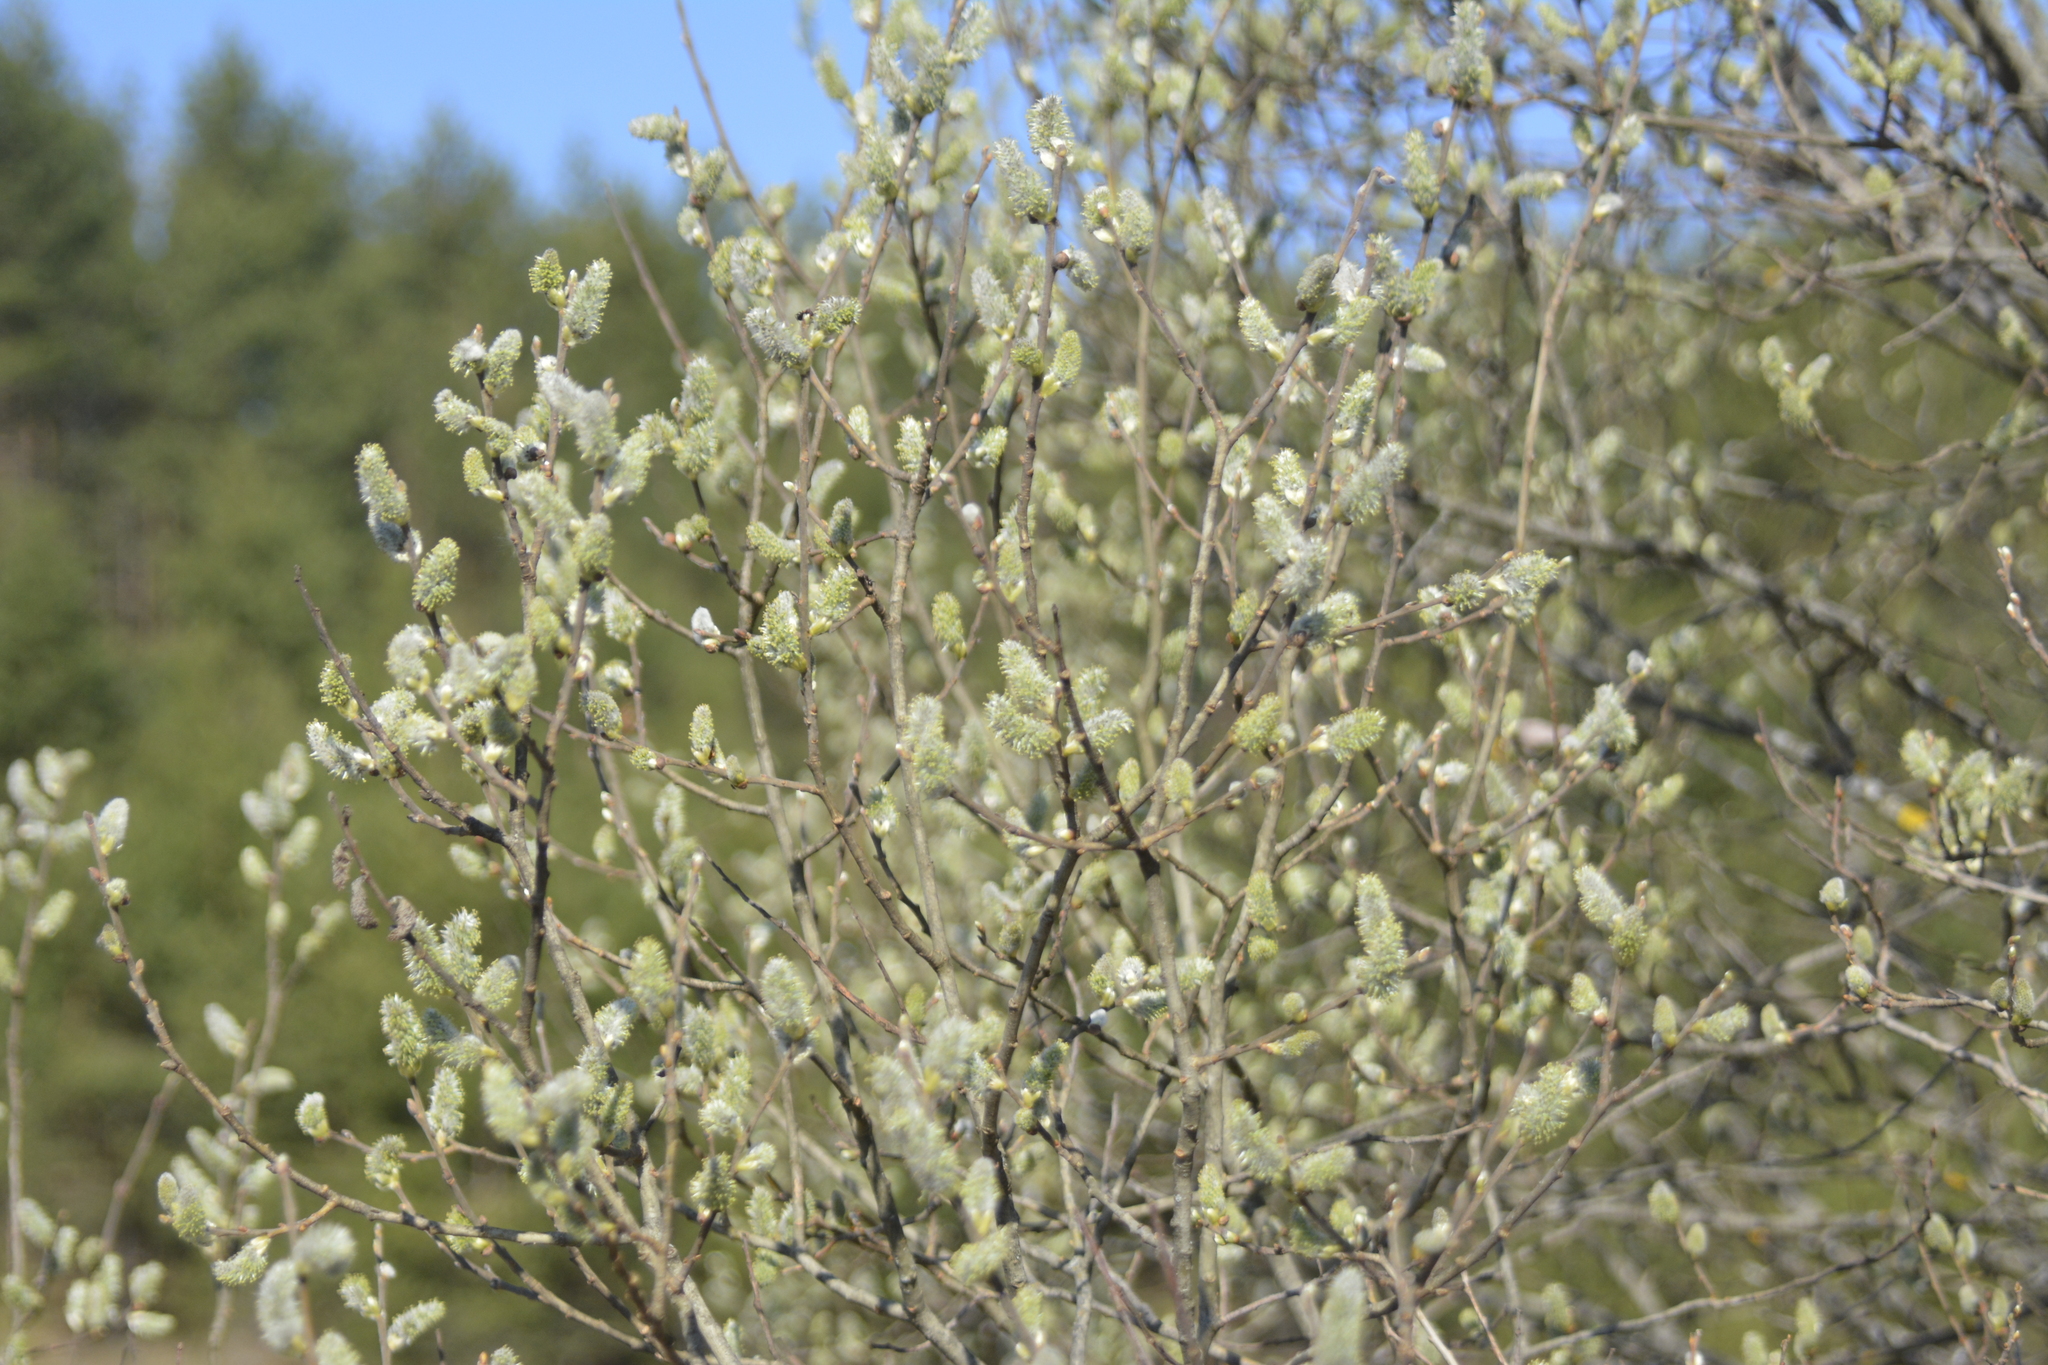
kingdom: Plantae
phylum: Tracheophyta
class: Magnoliopsida
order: Malpighiales
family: Salicaceae
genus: Salix
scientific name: Salix cinerea
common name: Common sallow
